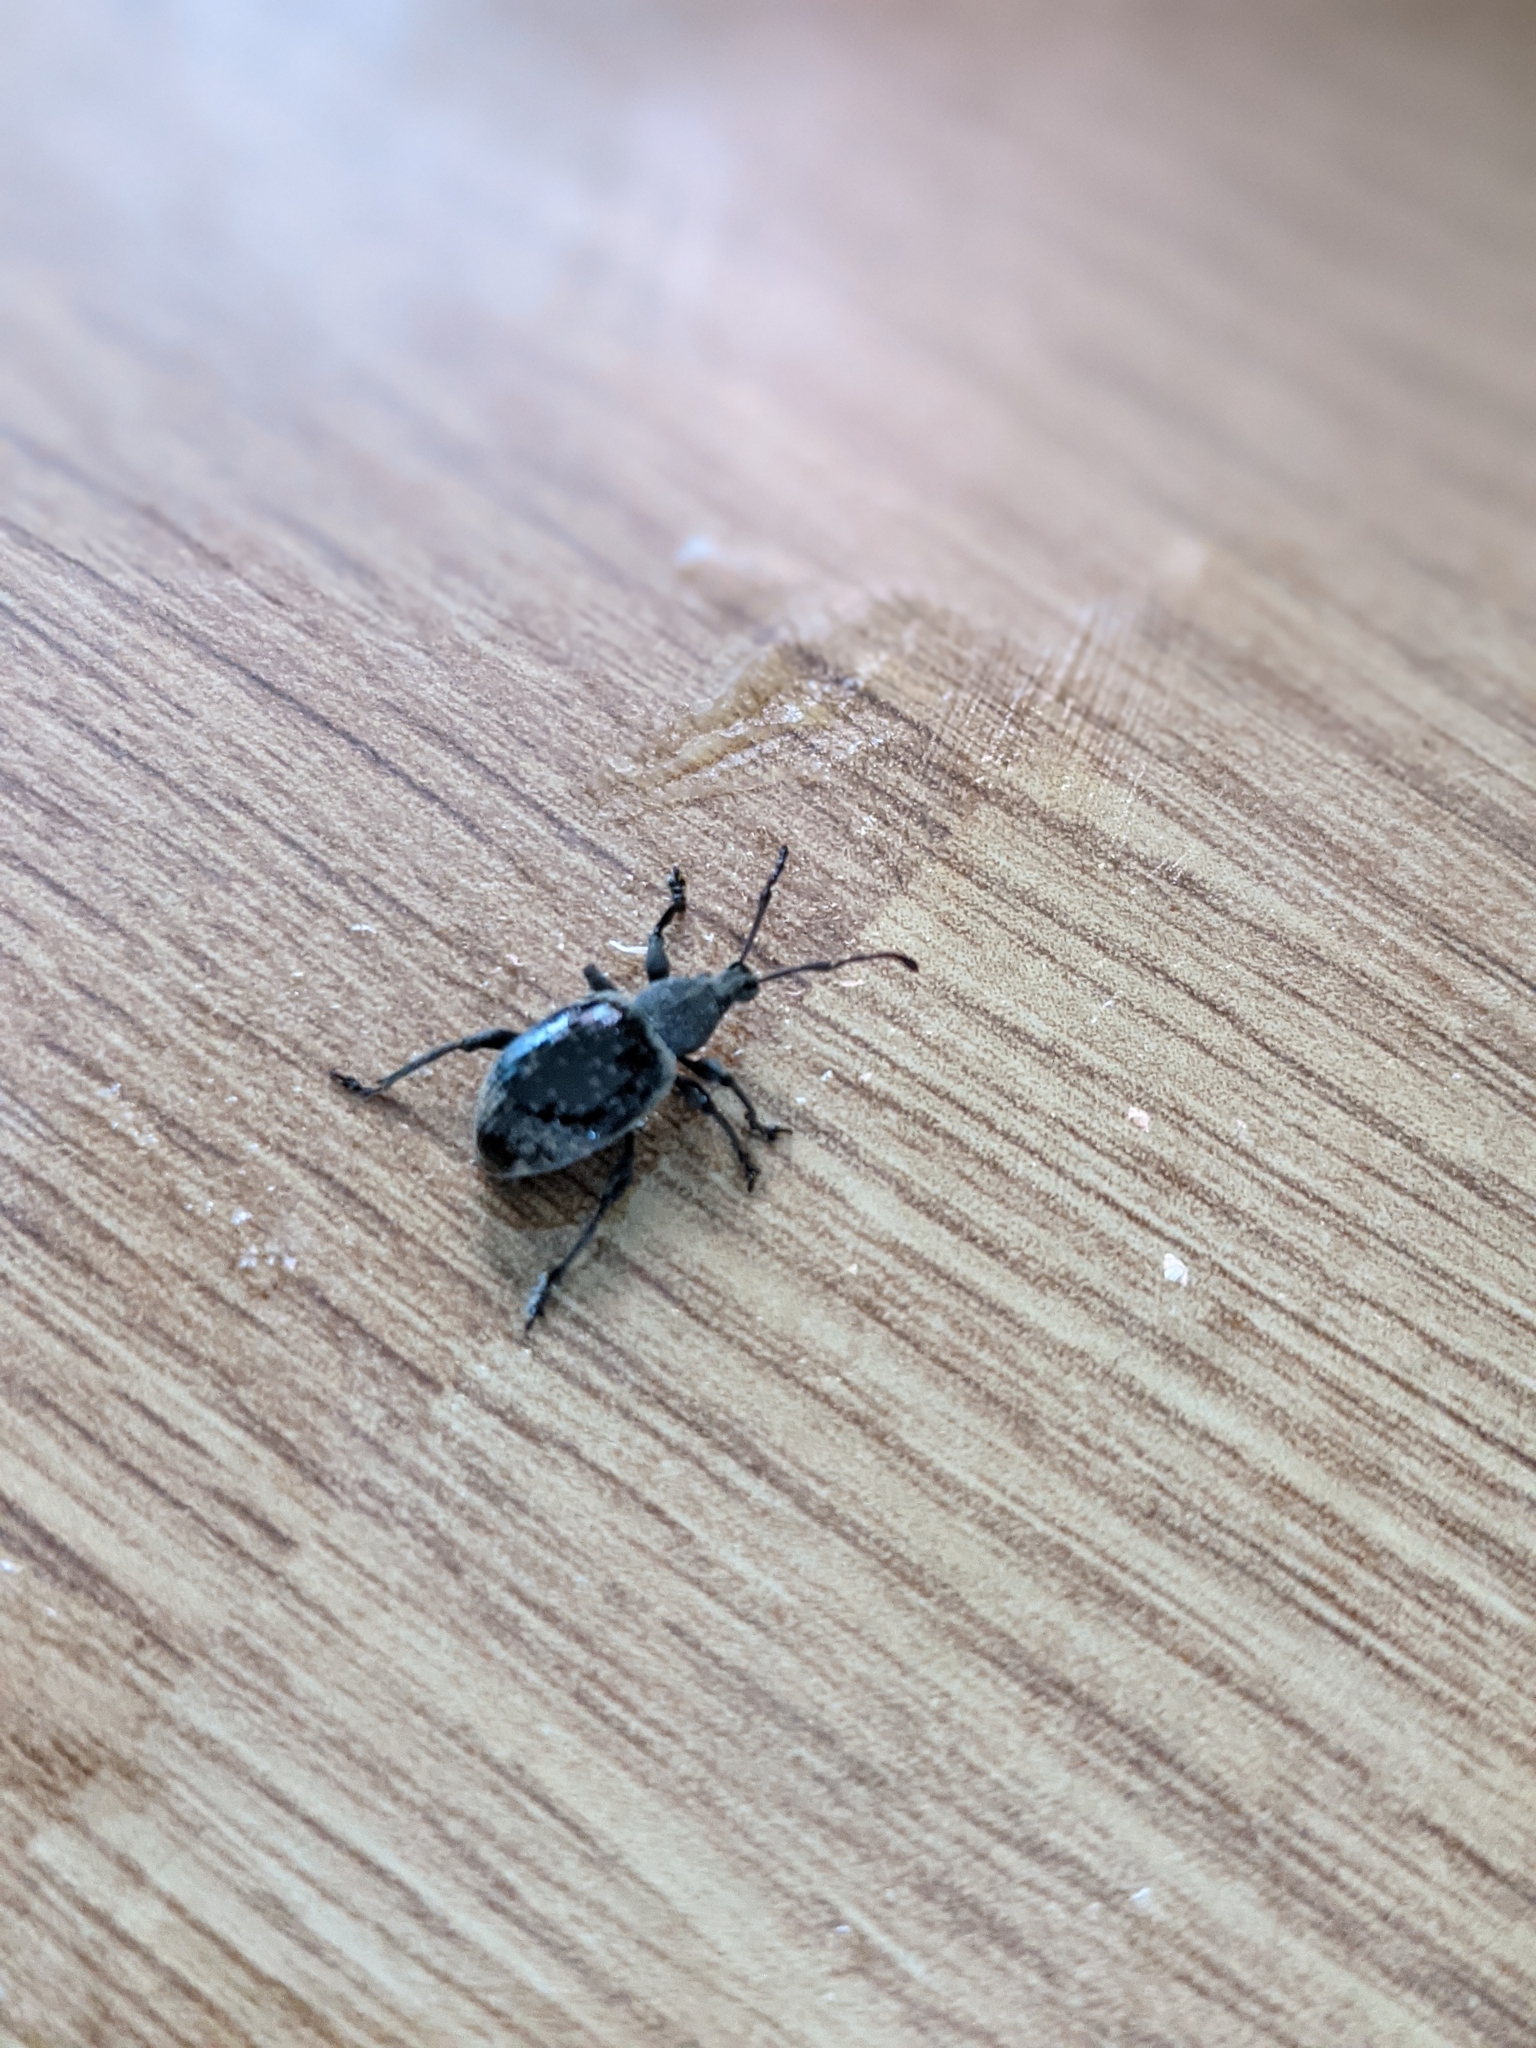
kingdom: Animalia
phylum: Arthropoda
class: Insecta
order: Coleoptera
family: Curculionidae
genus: Otiorhynchus
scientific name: Otiorhynchus sulcatus
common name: Black vine weevil
